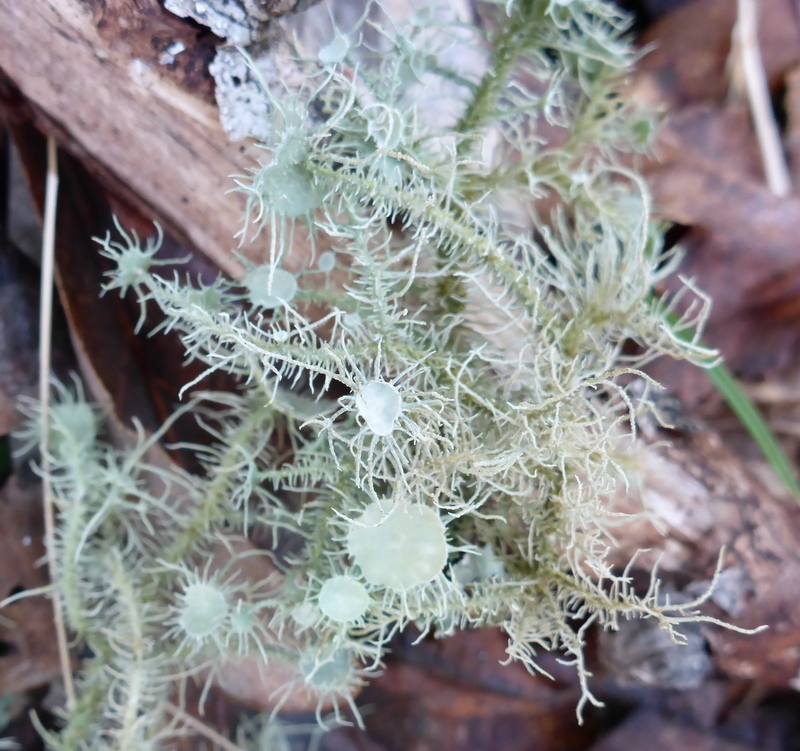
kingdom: Fungi
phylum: Ascomycota
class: Lecanoromycetes
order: Lecanorales
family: Parmeliaceae
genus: Usnea
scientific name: Usnea strigosa
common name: Bushy beard lichen
